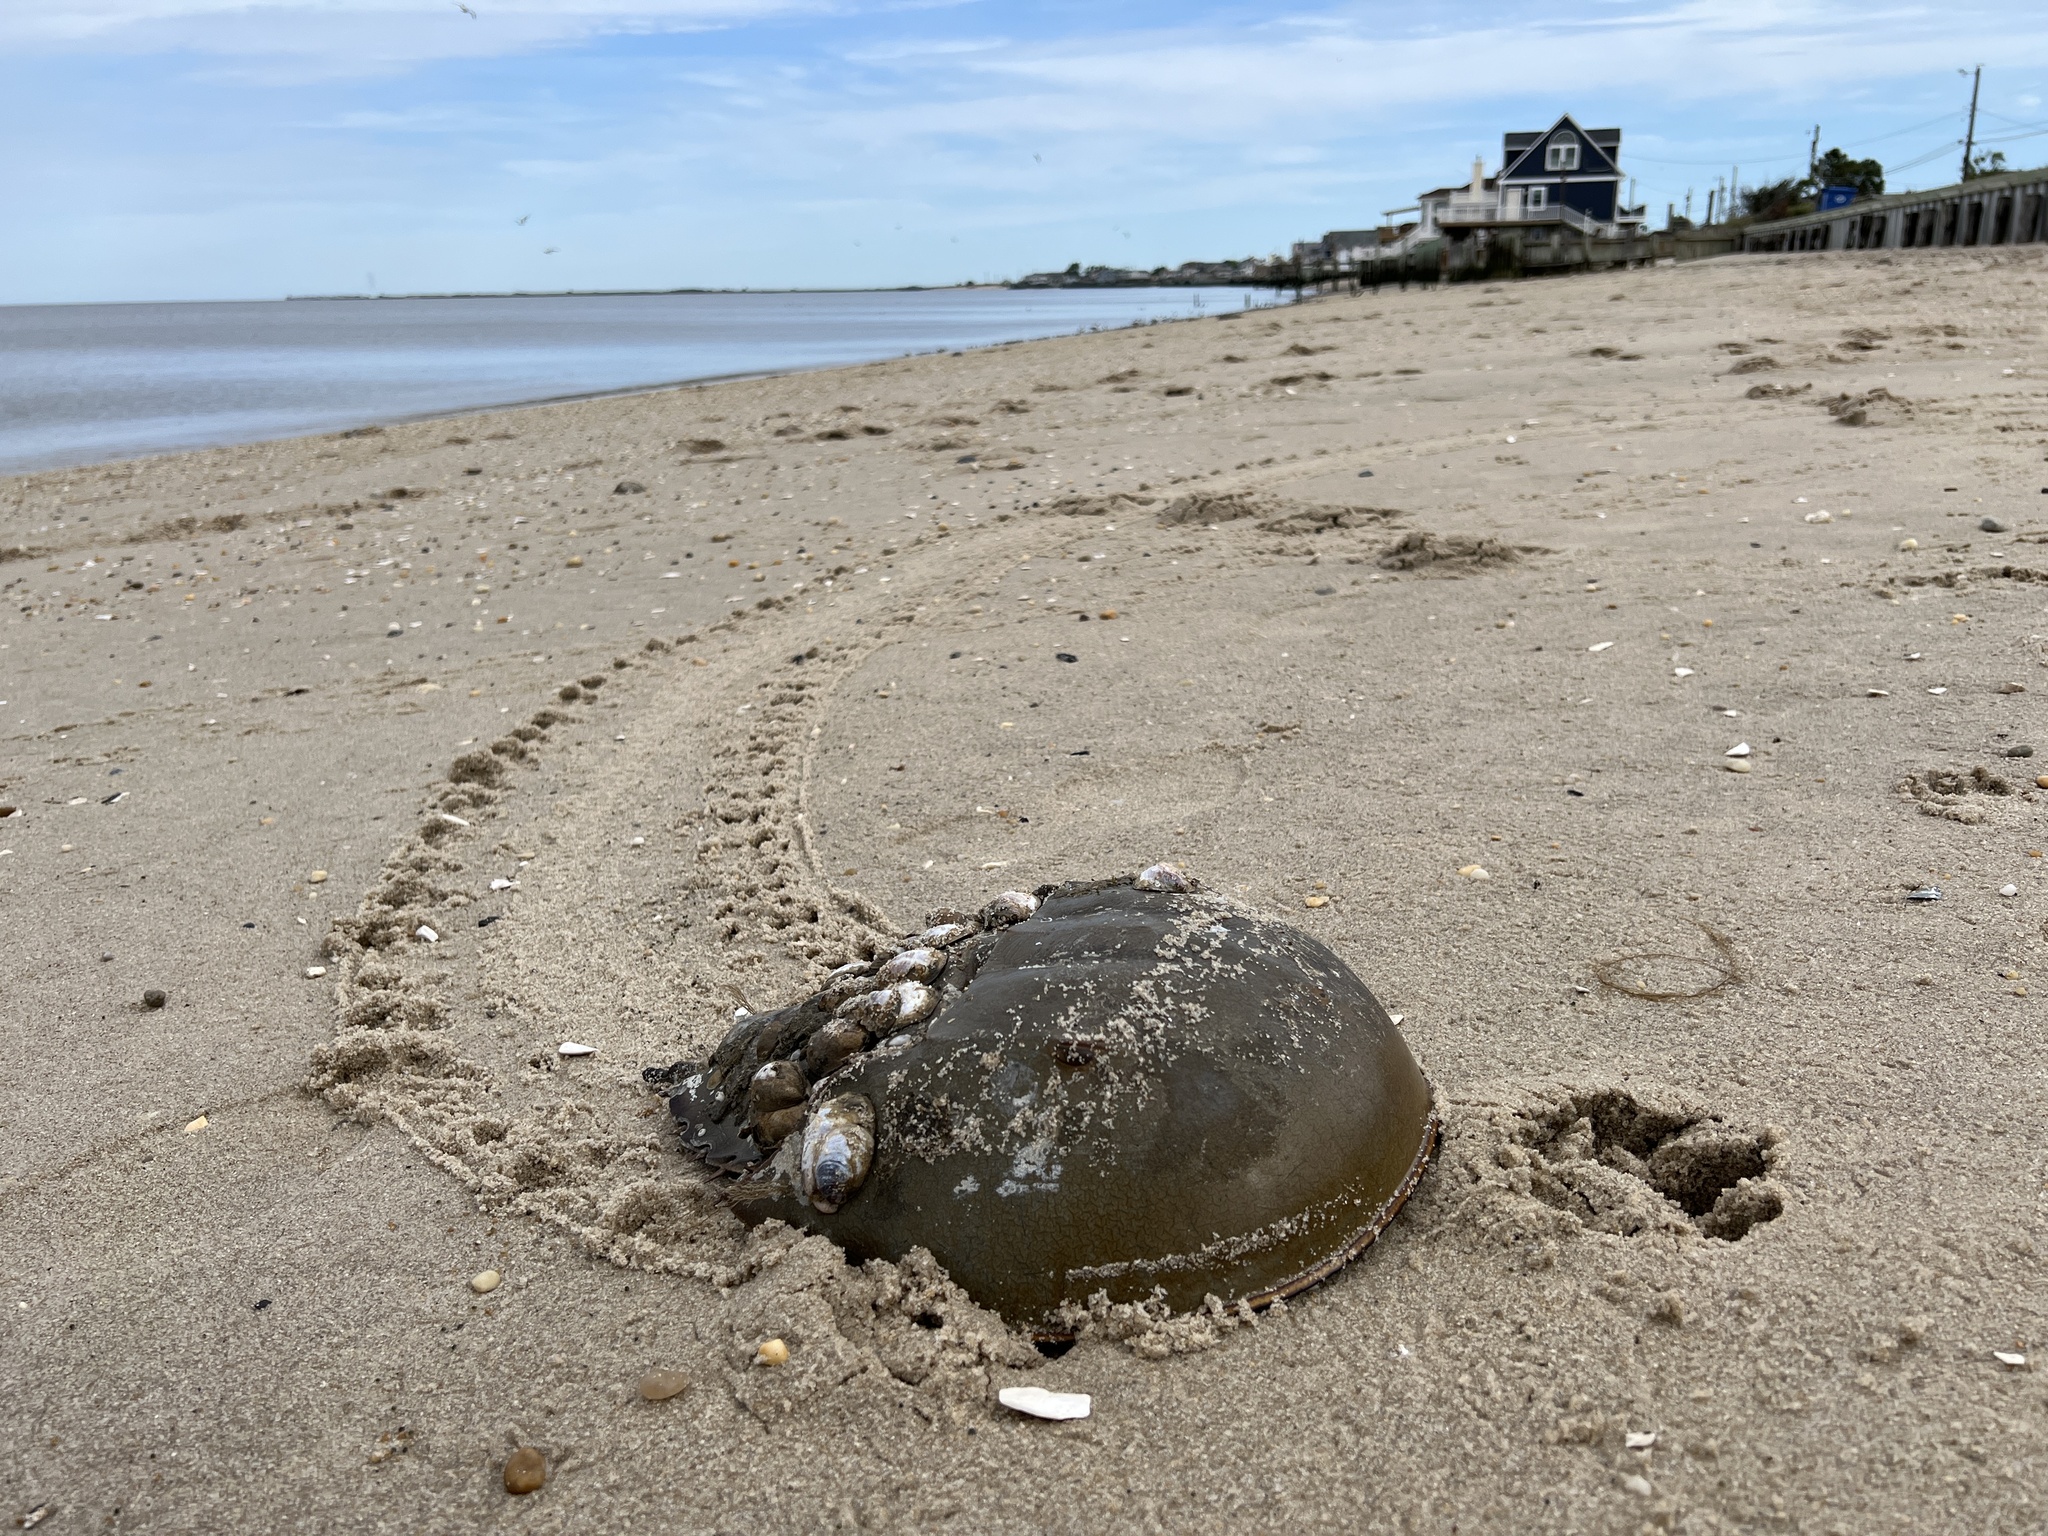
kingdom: Animalia
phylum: Arthropoda
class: Merostomata
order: Xiphosurida
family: Limulidae
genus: Limulus
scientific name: Limulus polyphemus
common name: Horseshoe crab
